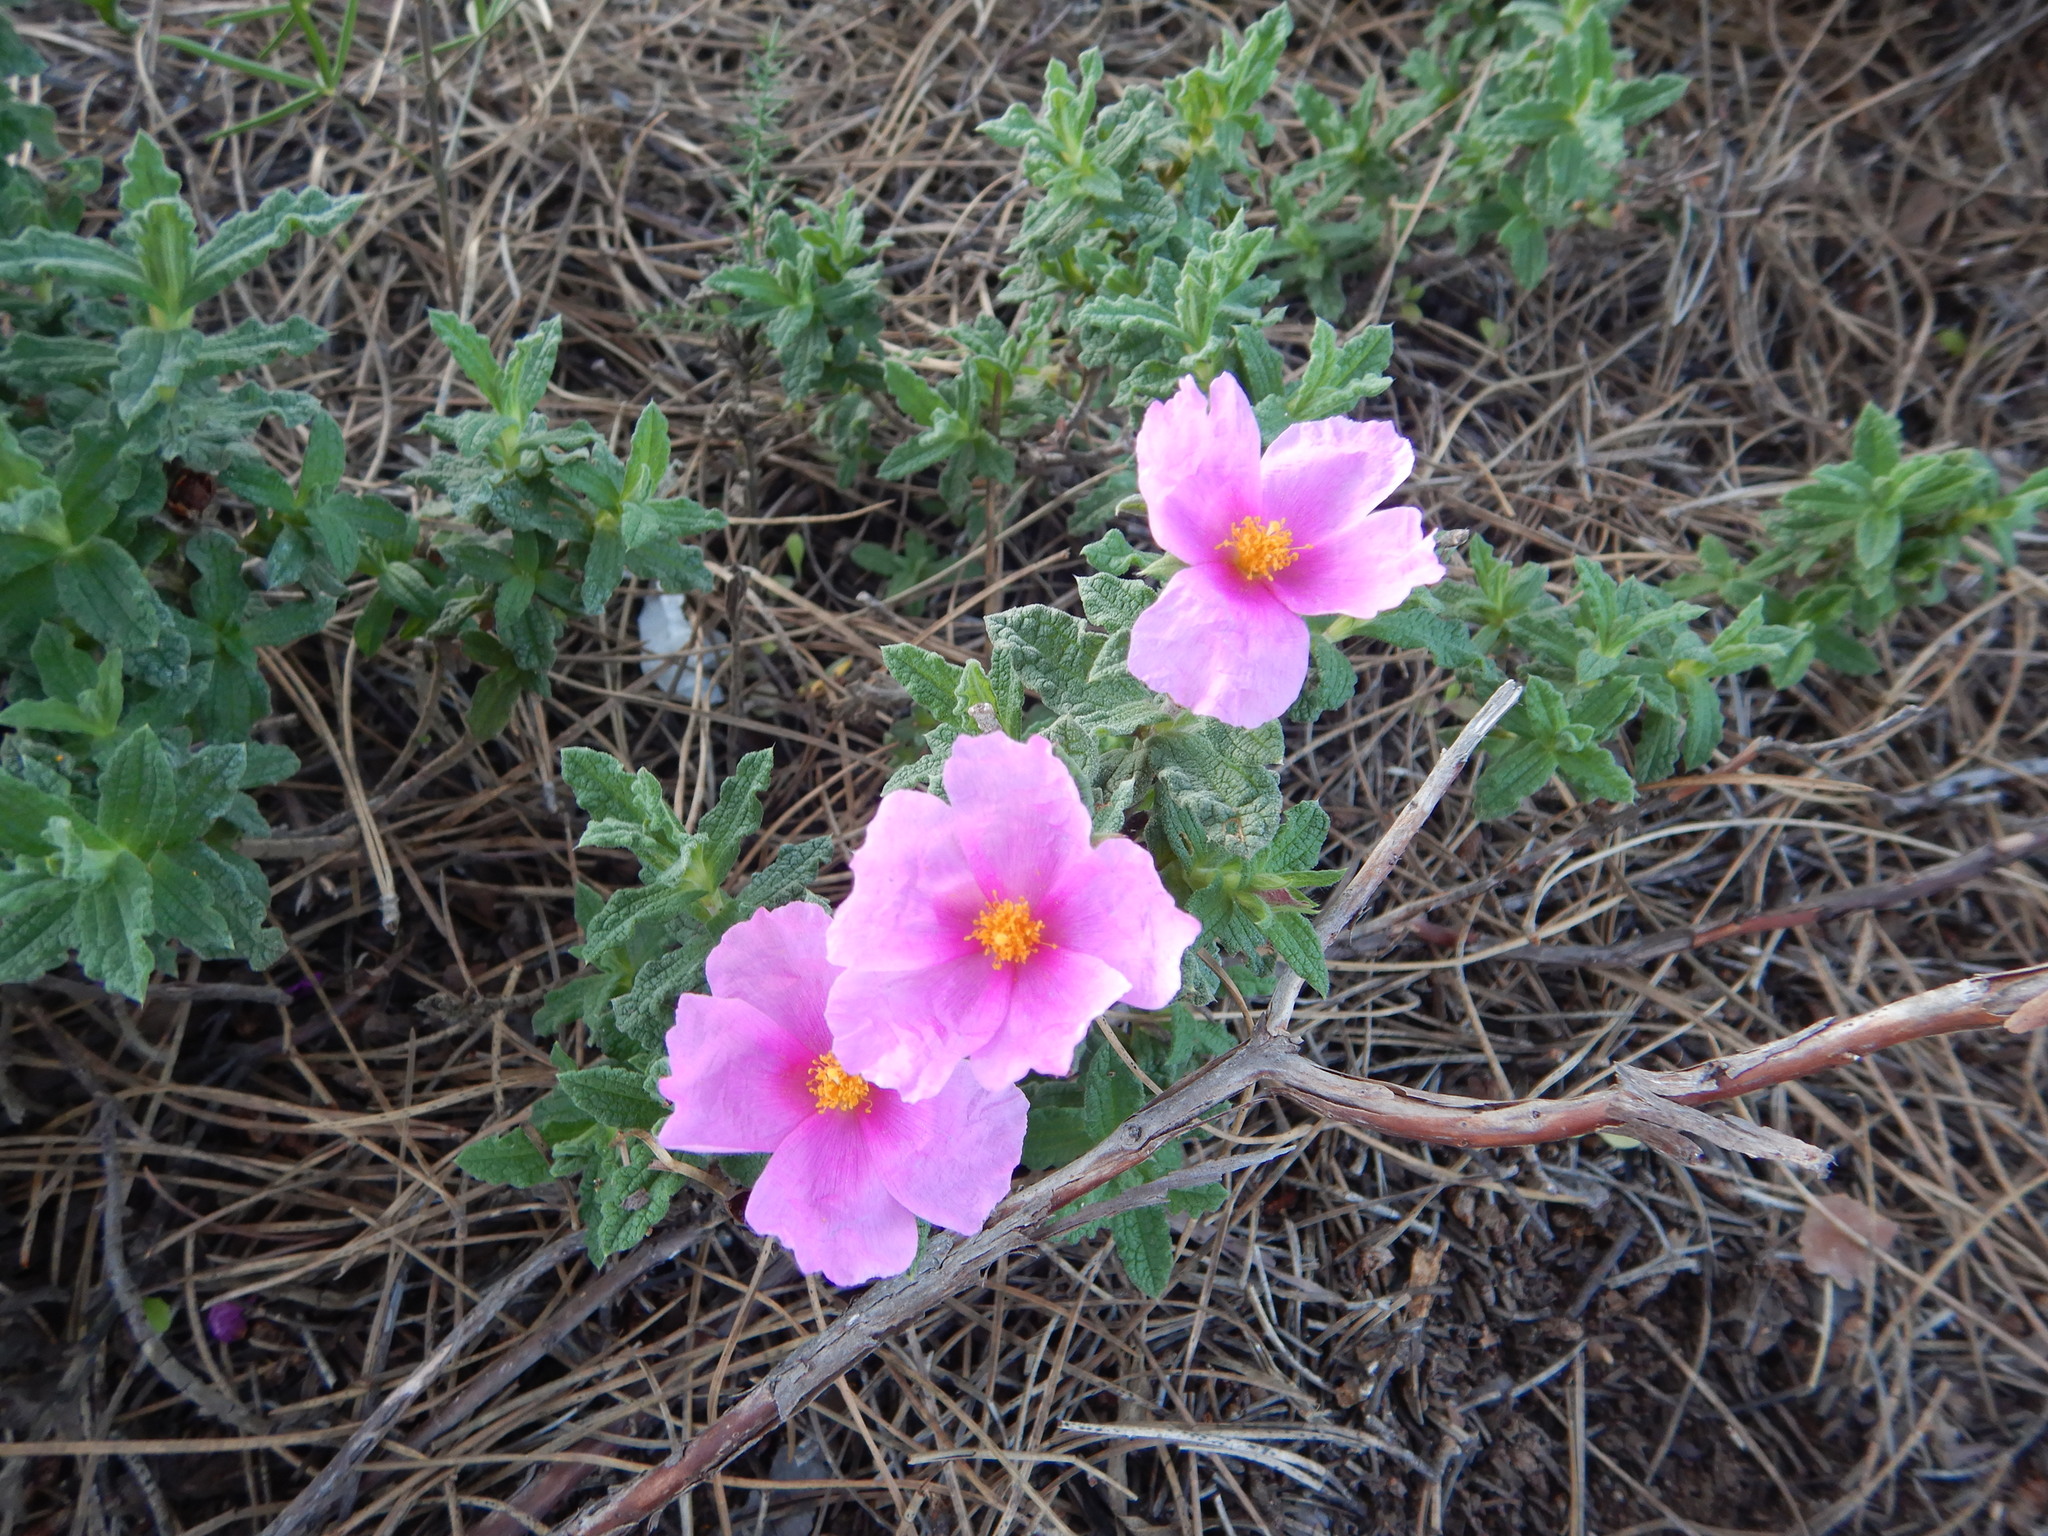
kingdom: Plantae
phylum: Tracheophyta
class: Magnoliopsida
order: Malvales
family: Cistaceae
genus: Cistus
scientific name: Cistus crispus
